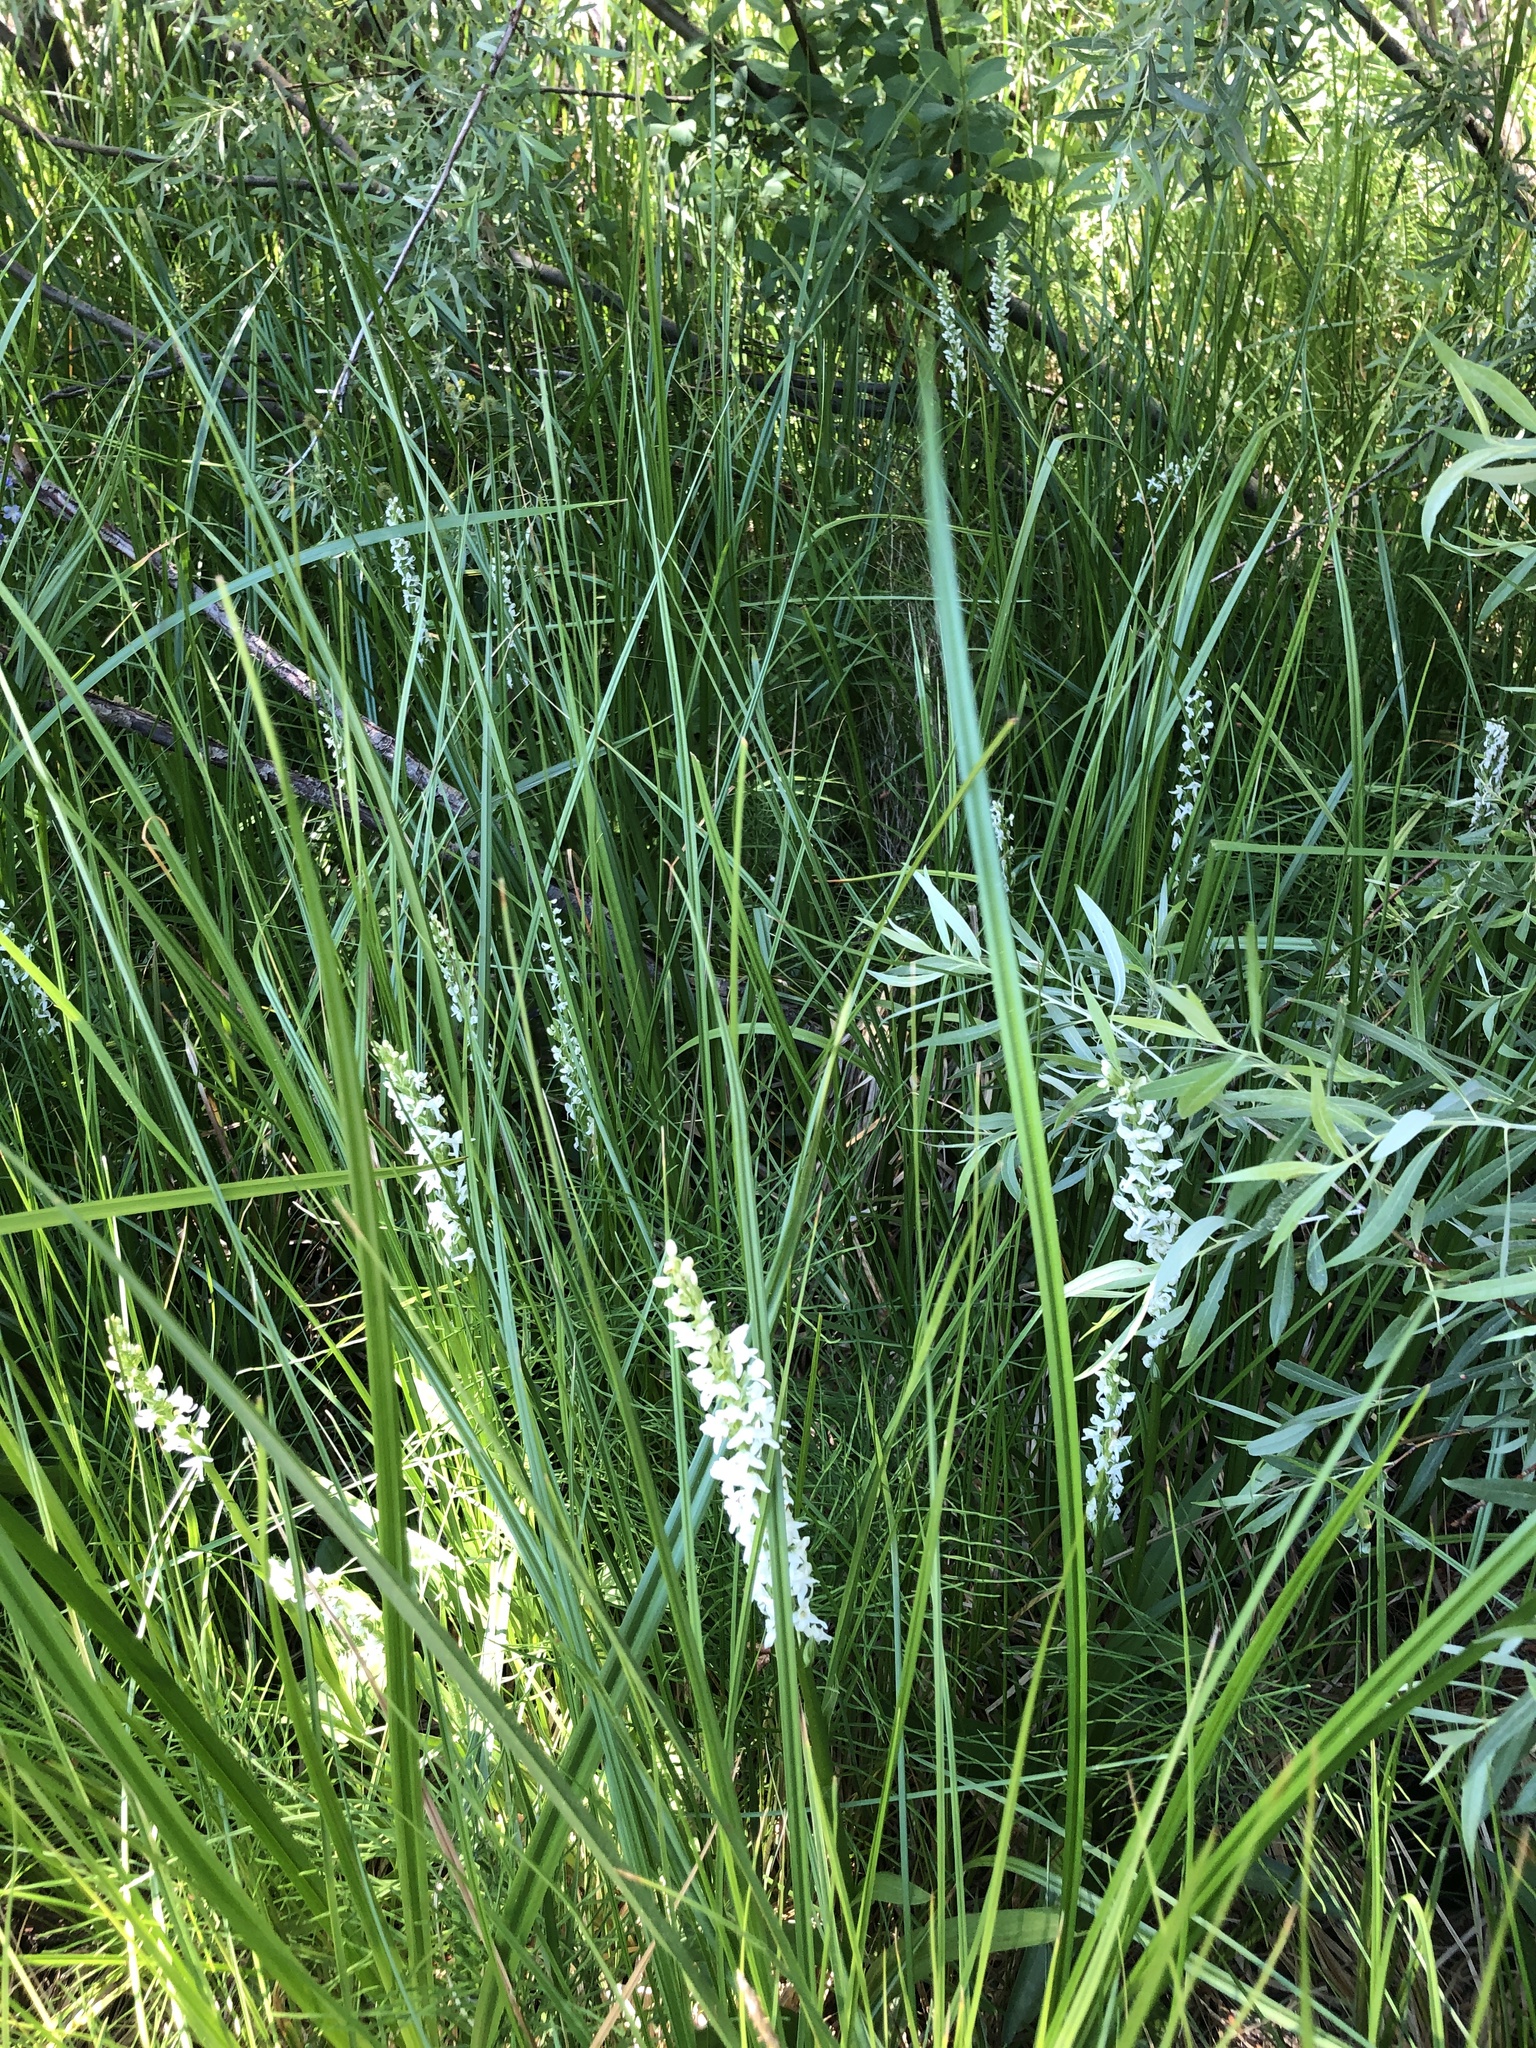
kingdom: Plantae
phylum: Tracheophyta
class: Liliopsida
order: Asparagales
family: Orchidaceae
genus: Platanthera
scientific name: Platanthera dilatata
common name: Bog candles
